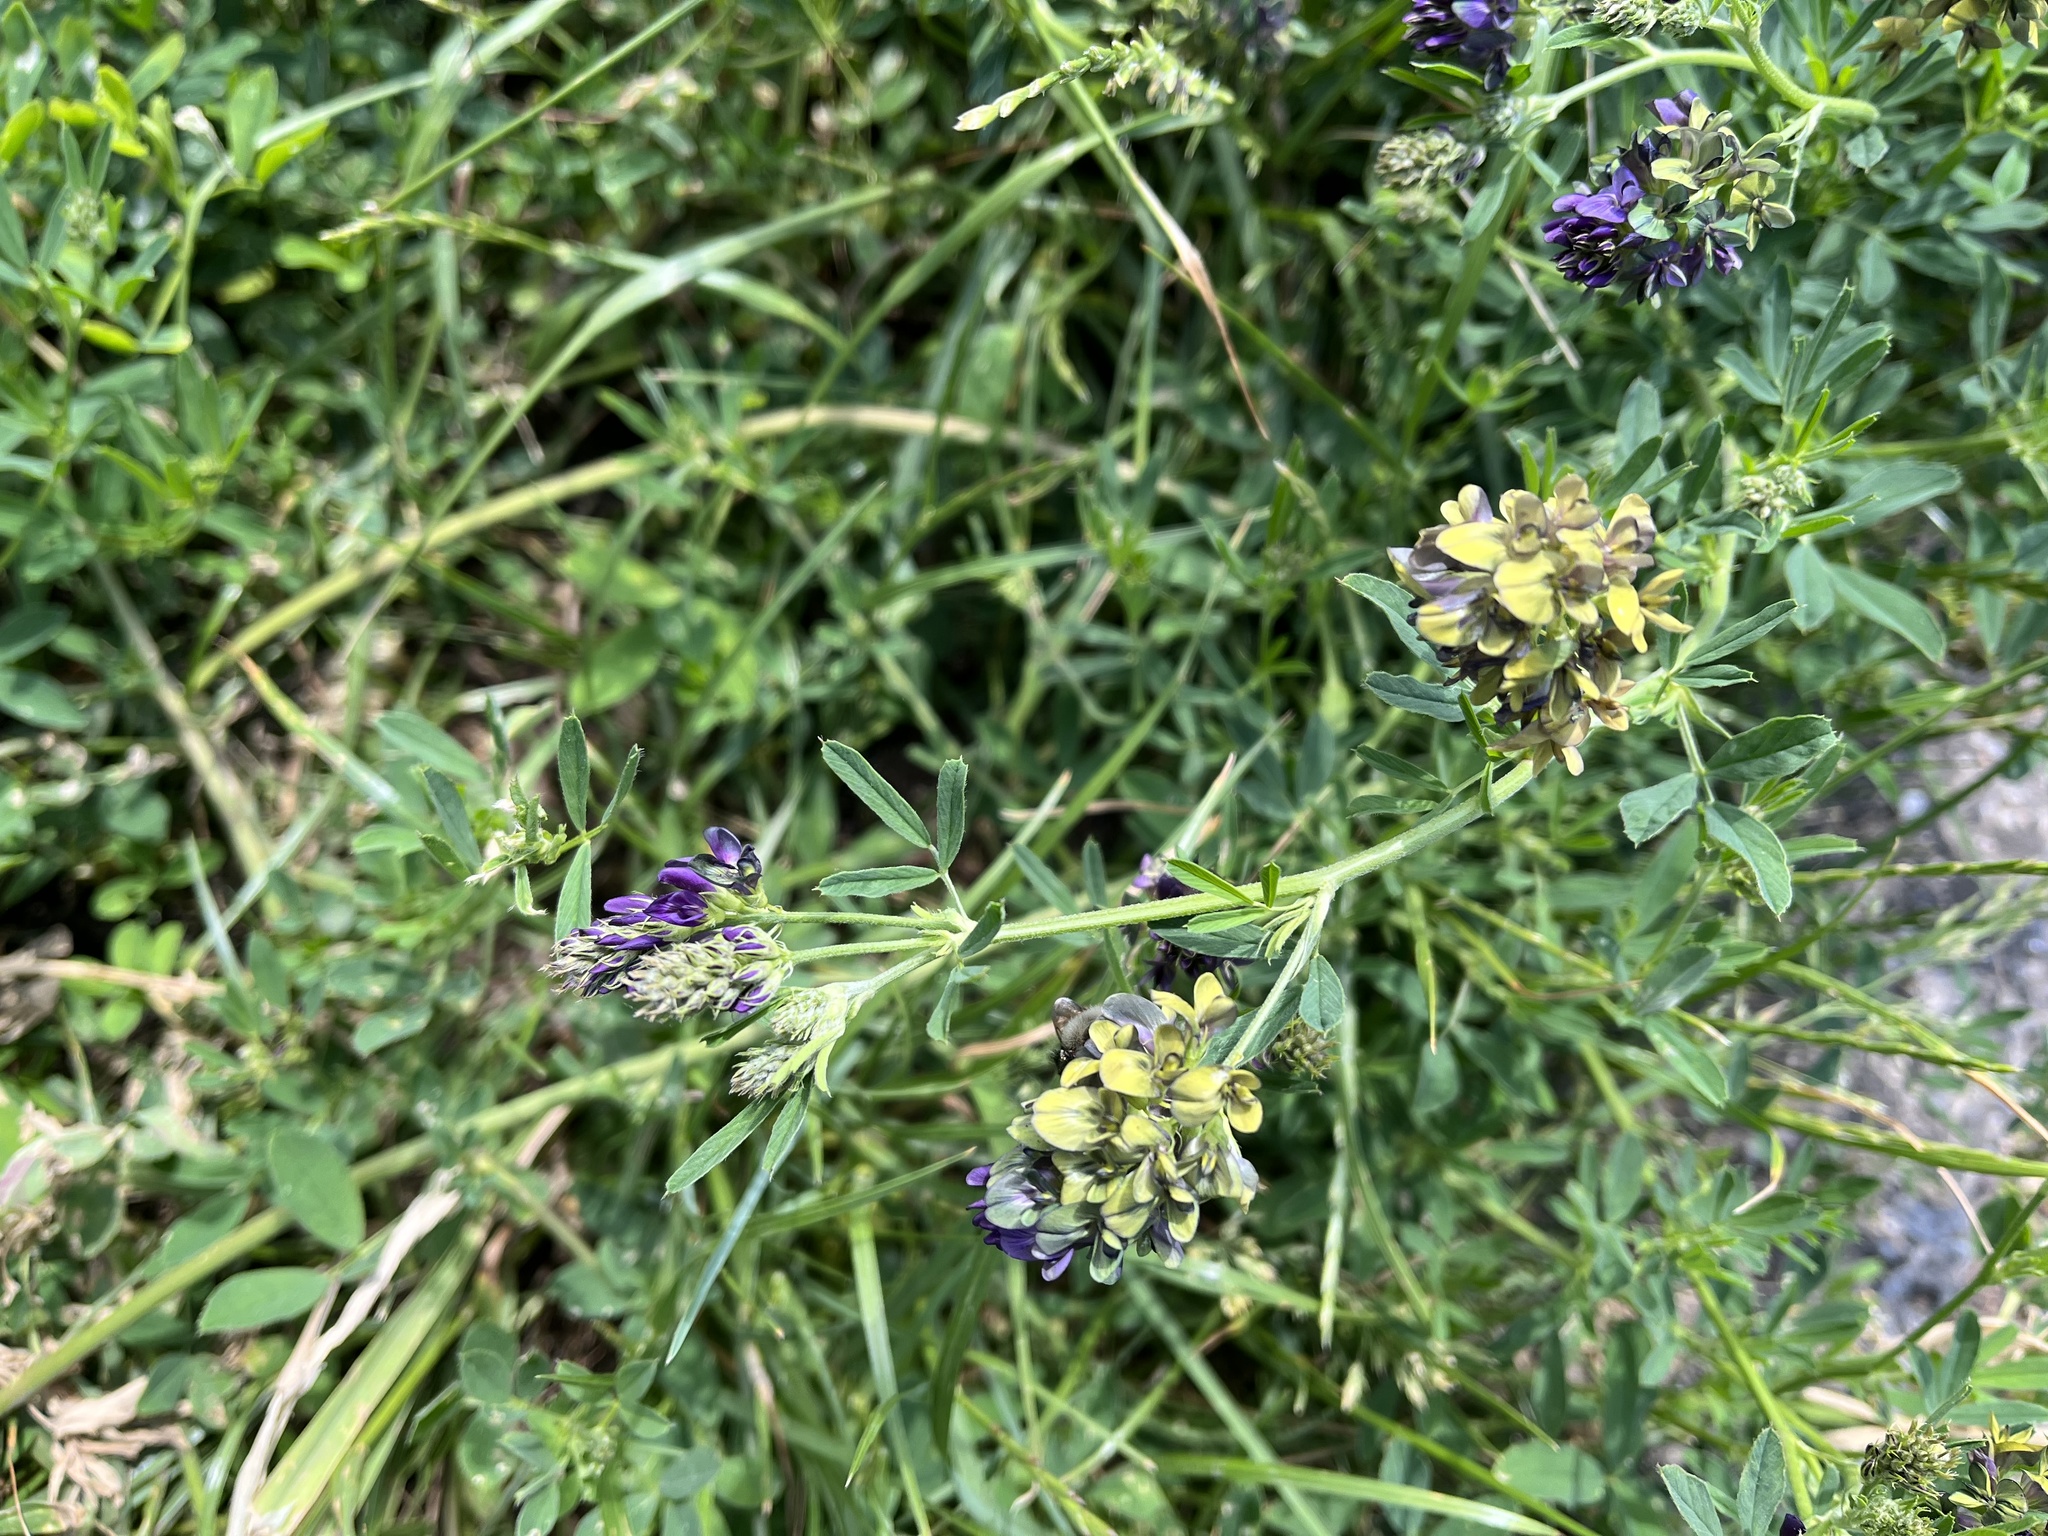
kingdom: Plantae
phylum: Tracheophyta
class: Magnoliopsida
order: Fabales
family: Fabaceae
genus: Medicago
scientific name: Medicago varia
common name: Sand lucerne
